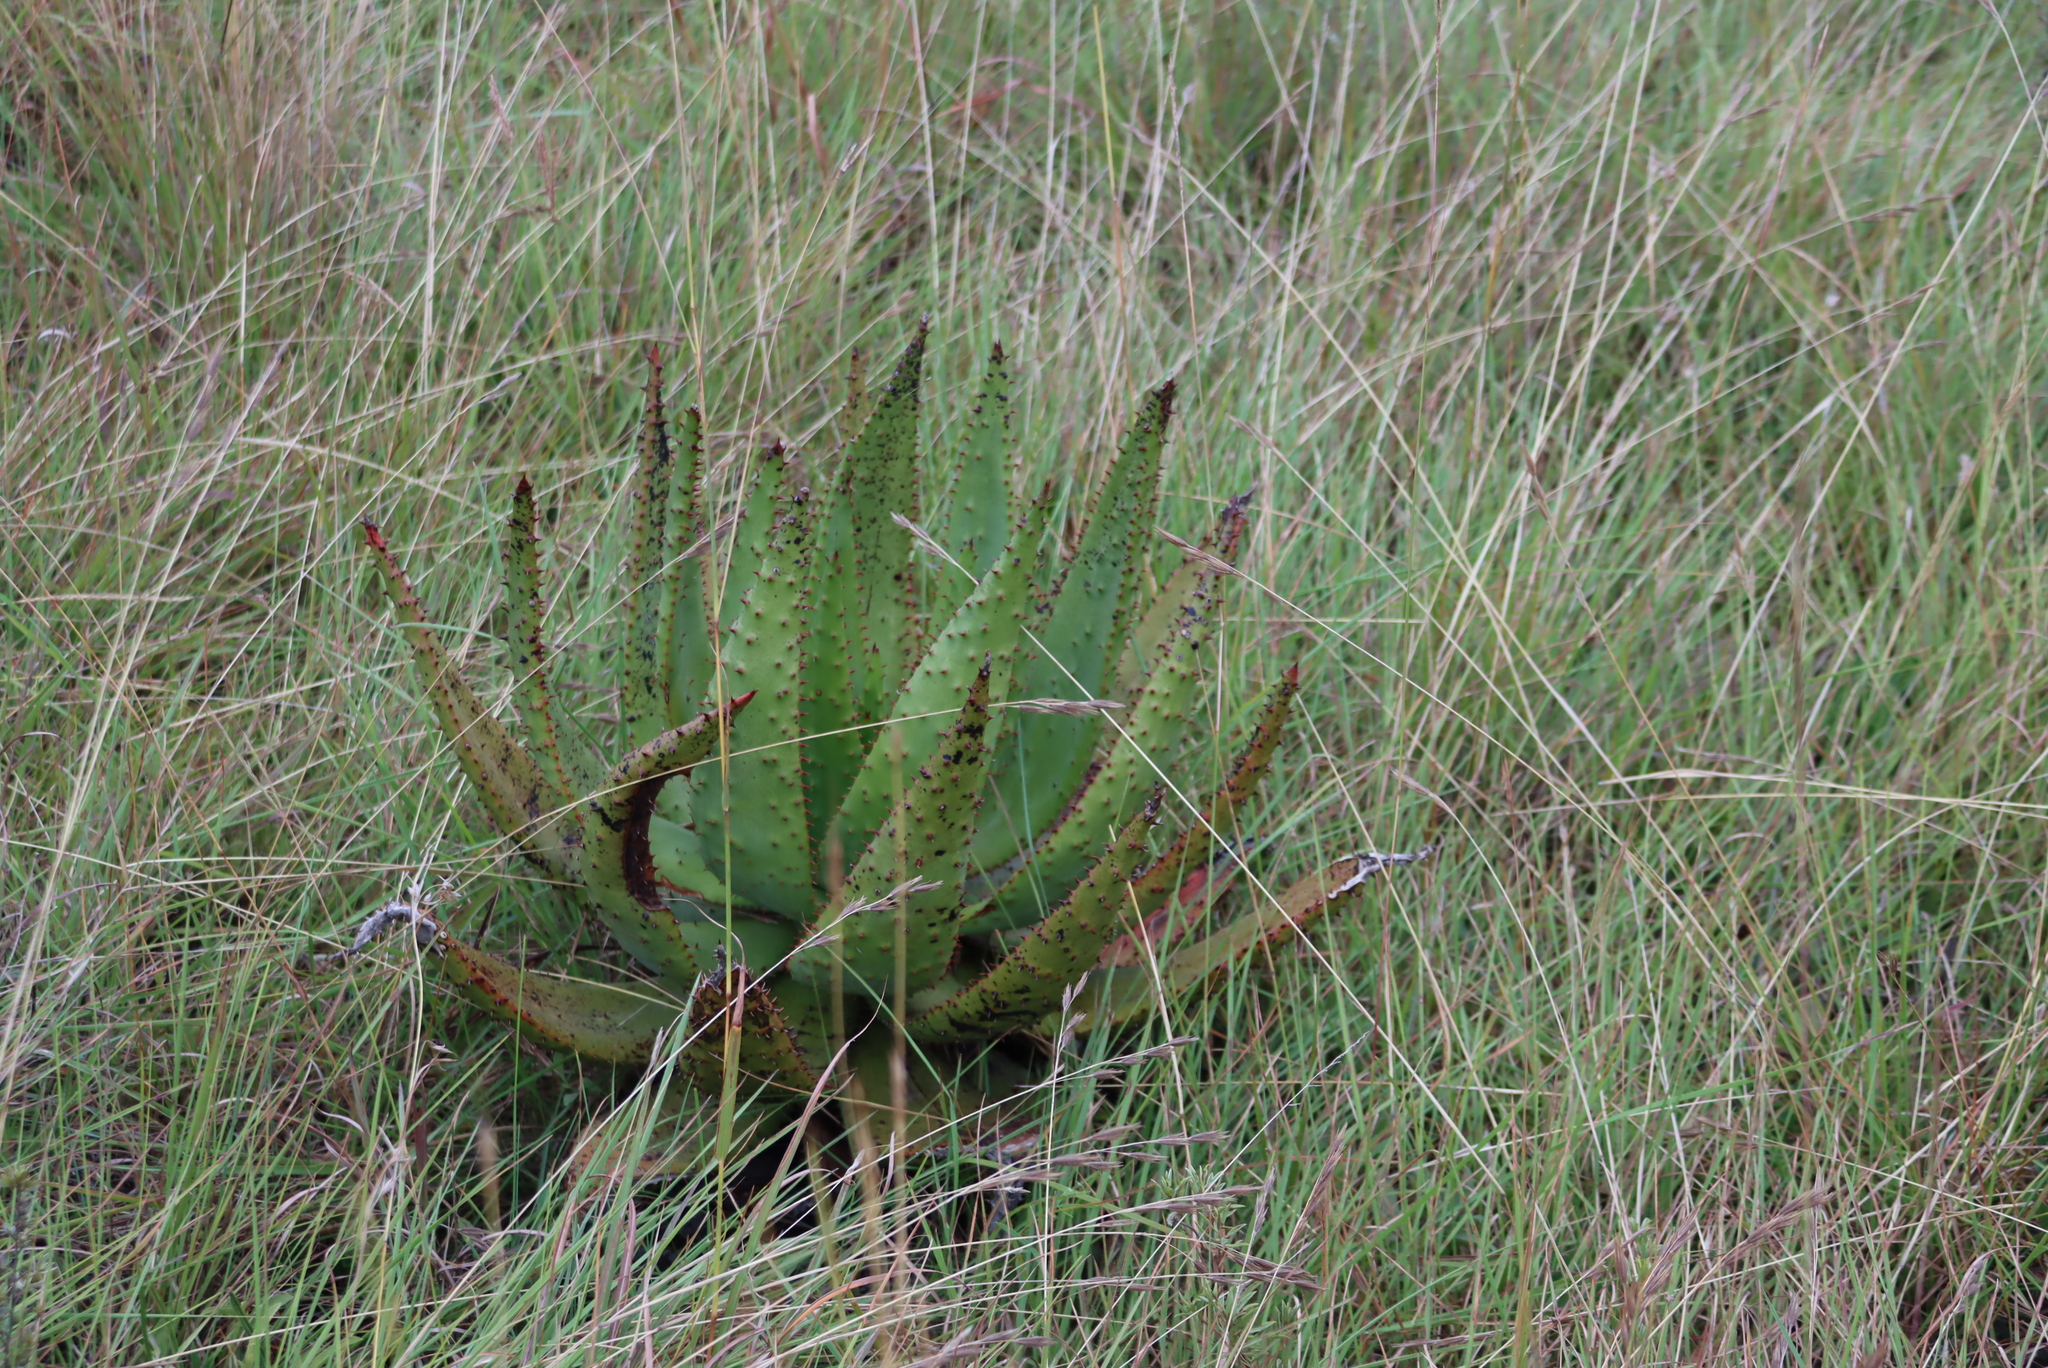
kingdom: Plantae
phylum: Tracheophyta
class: Liliopsida
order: Asparagales
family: Asphodelaceae
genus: Aloe
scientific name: Aloe marlothii
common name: Flat-flowered aloe
